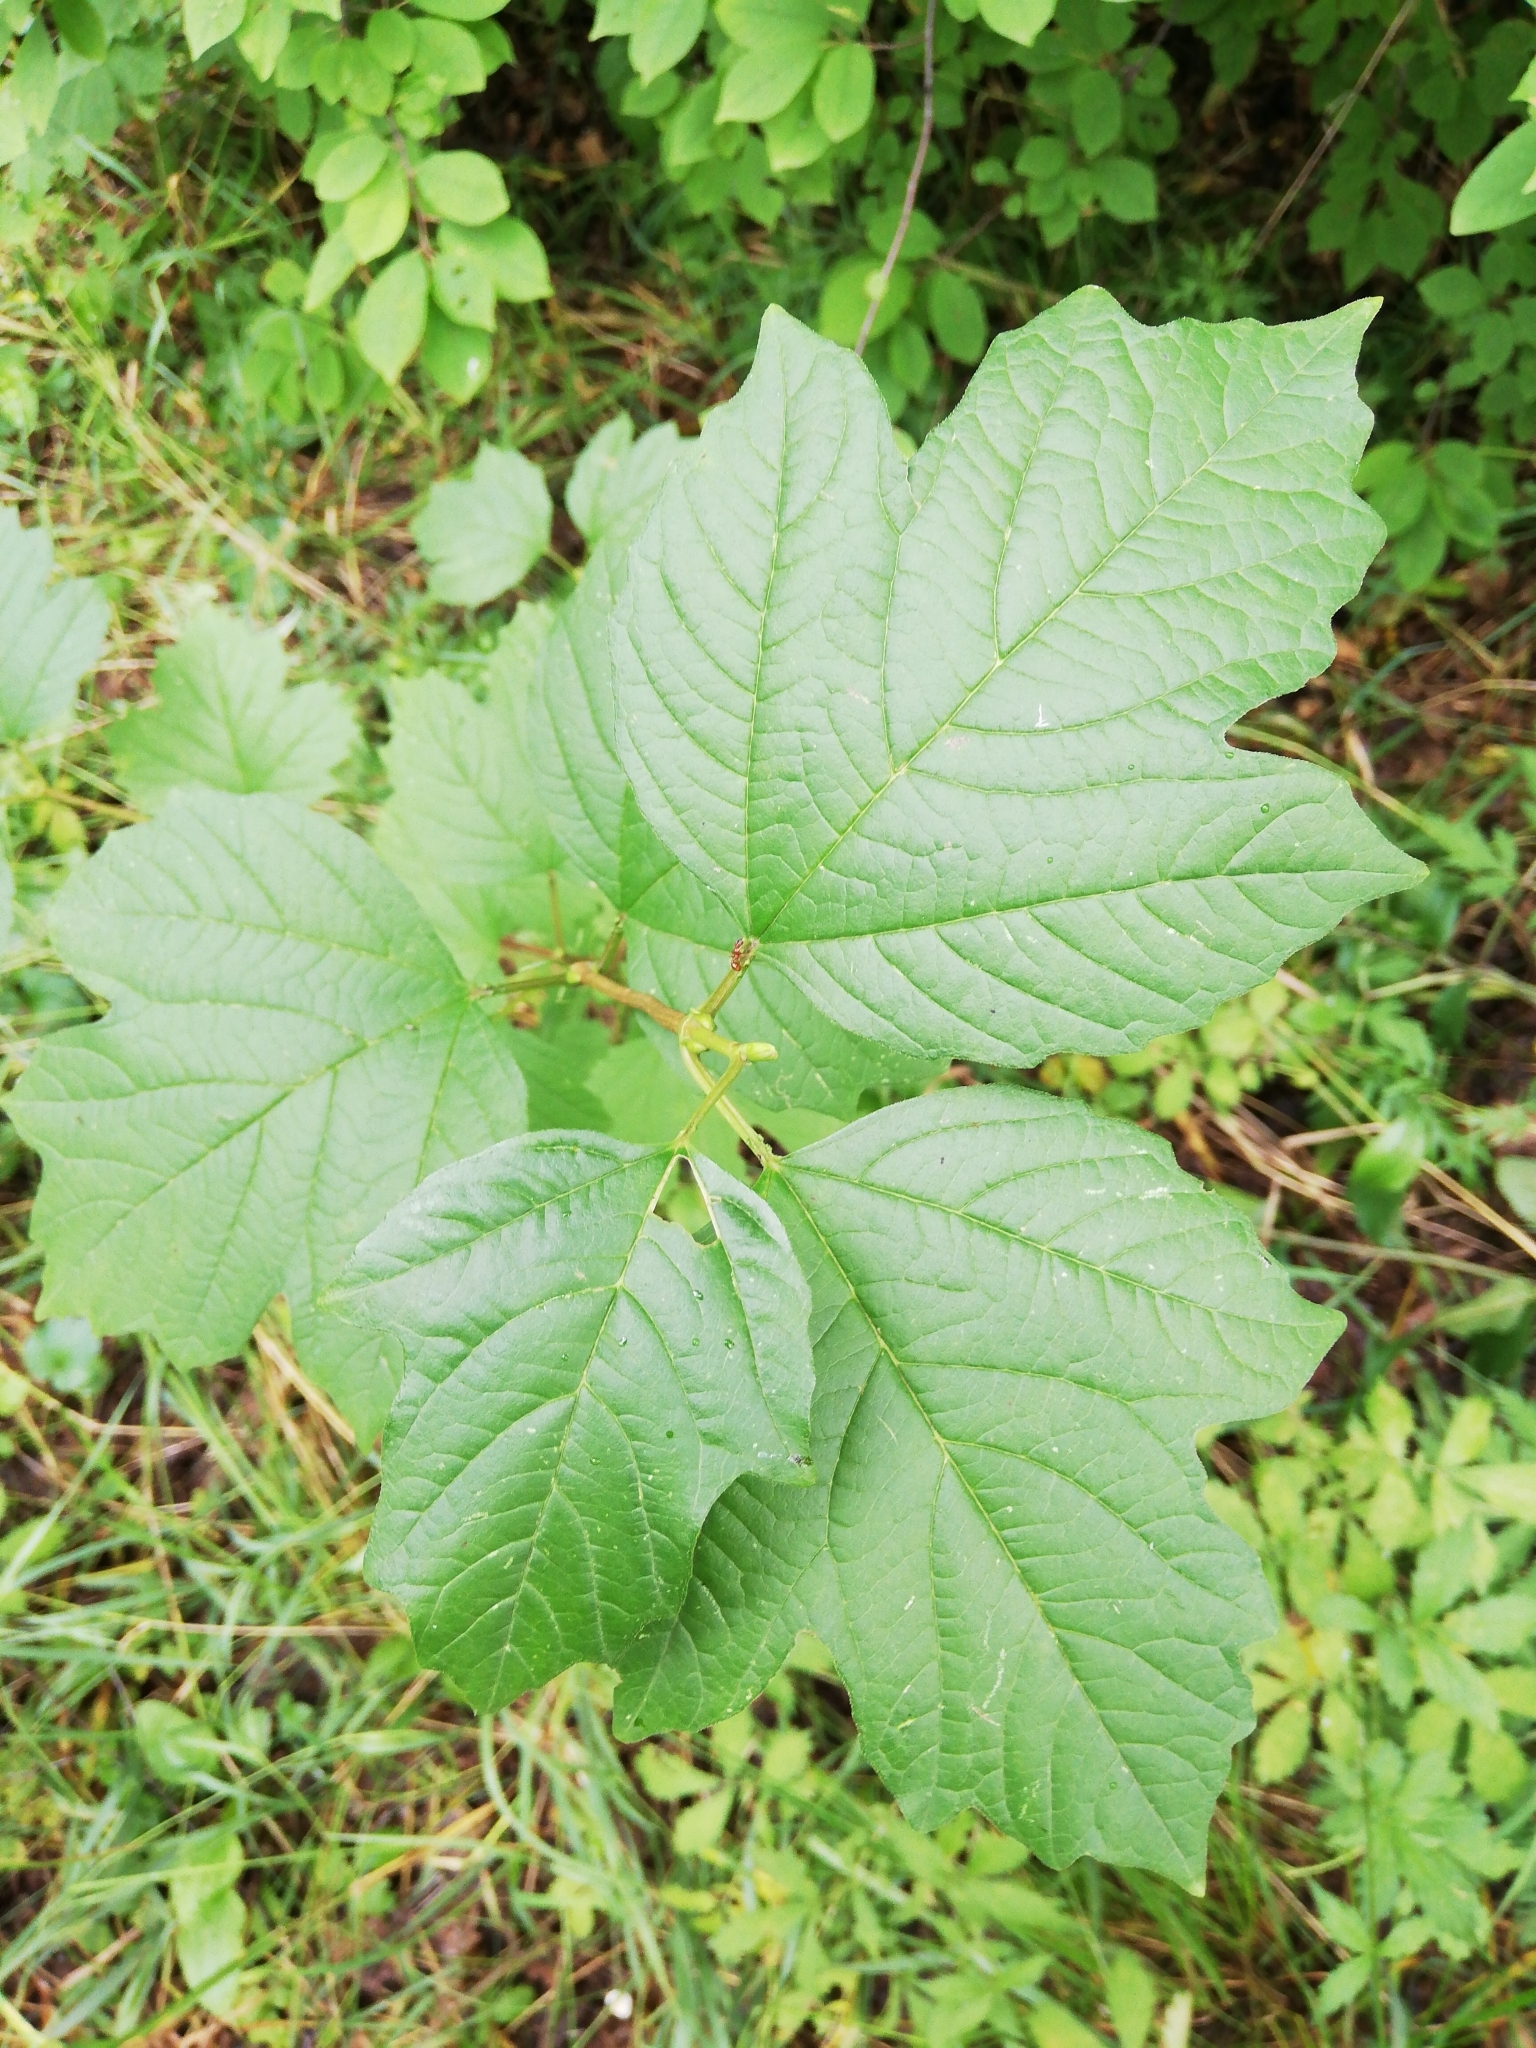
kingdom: Plantae
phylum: Tracheophyta
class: Magnoliopsida
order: Dipsacales
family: Viburnaceae
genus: Viburnum
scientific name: Viburnum opulus
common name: Guelder-rose
